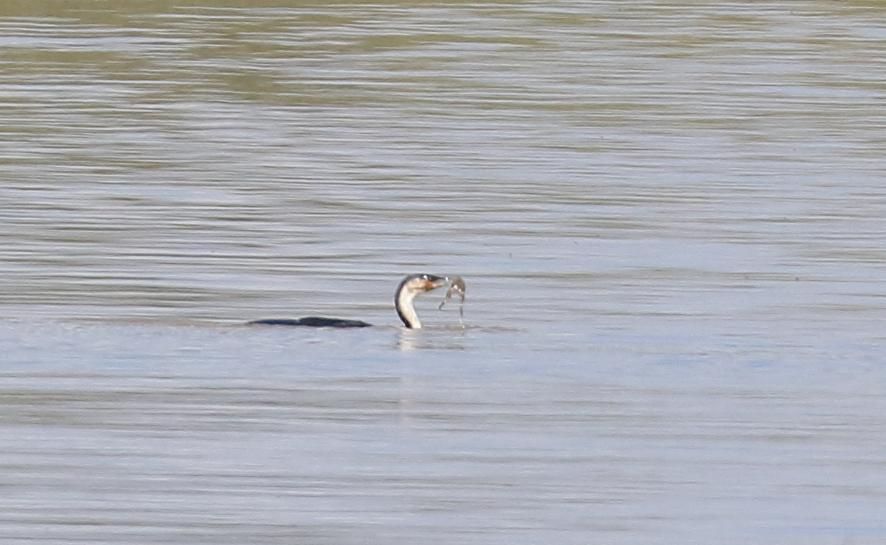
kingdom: Animalia
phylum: Chordata
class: Aves
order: Suliformes
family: Phalacrocoracidae
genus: Phalacrocorax
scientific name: Phalacrocorax carbo
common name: Great cormorant
